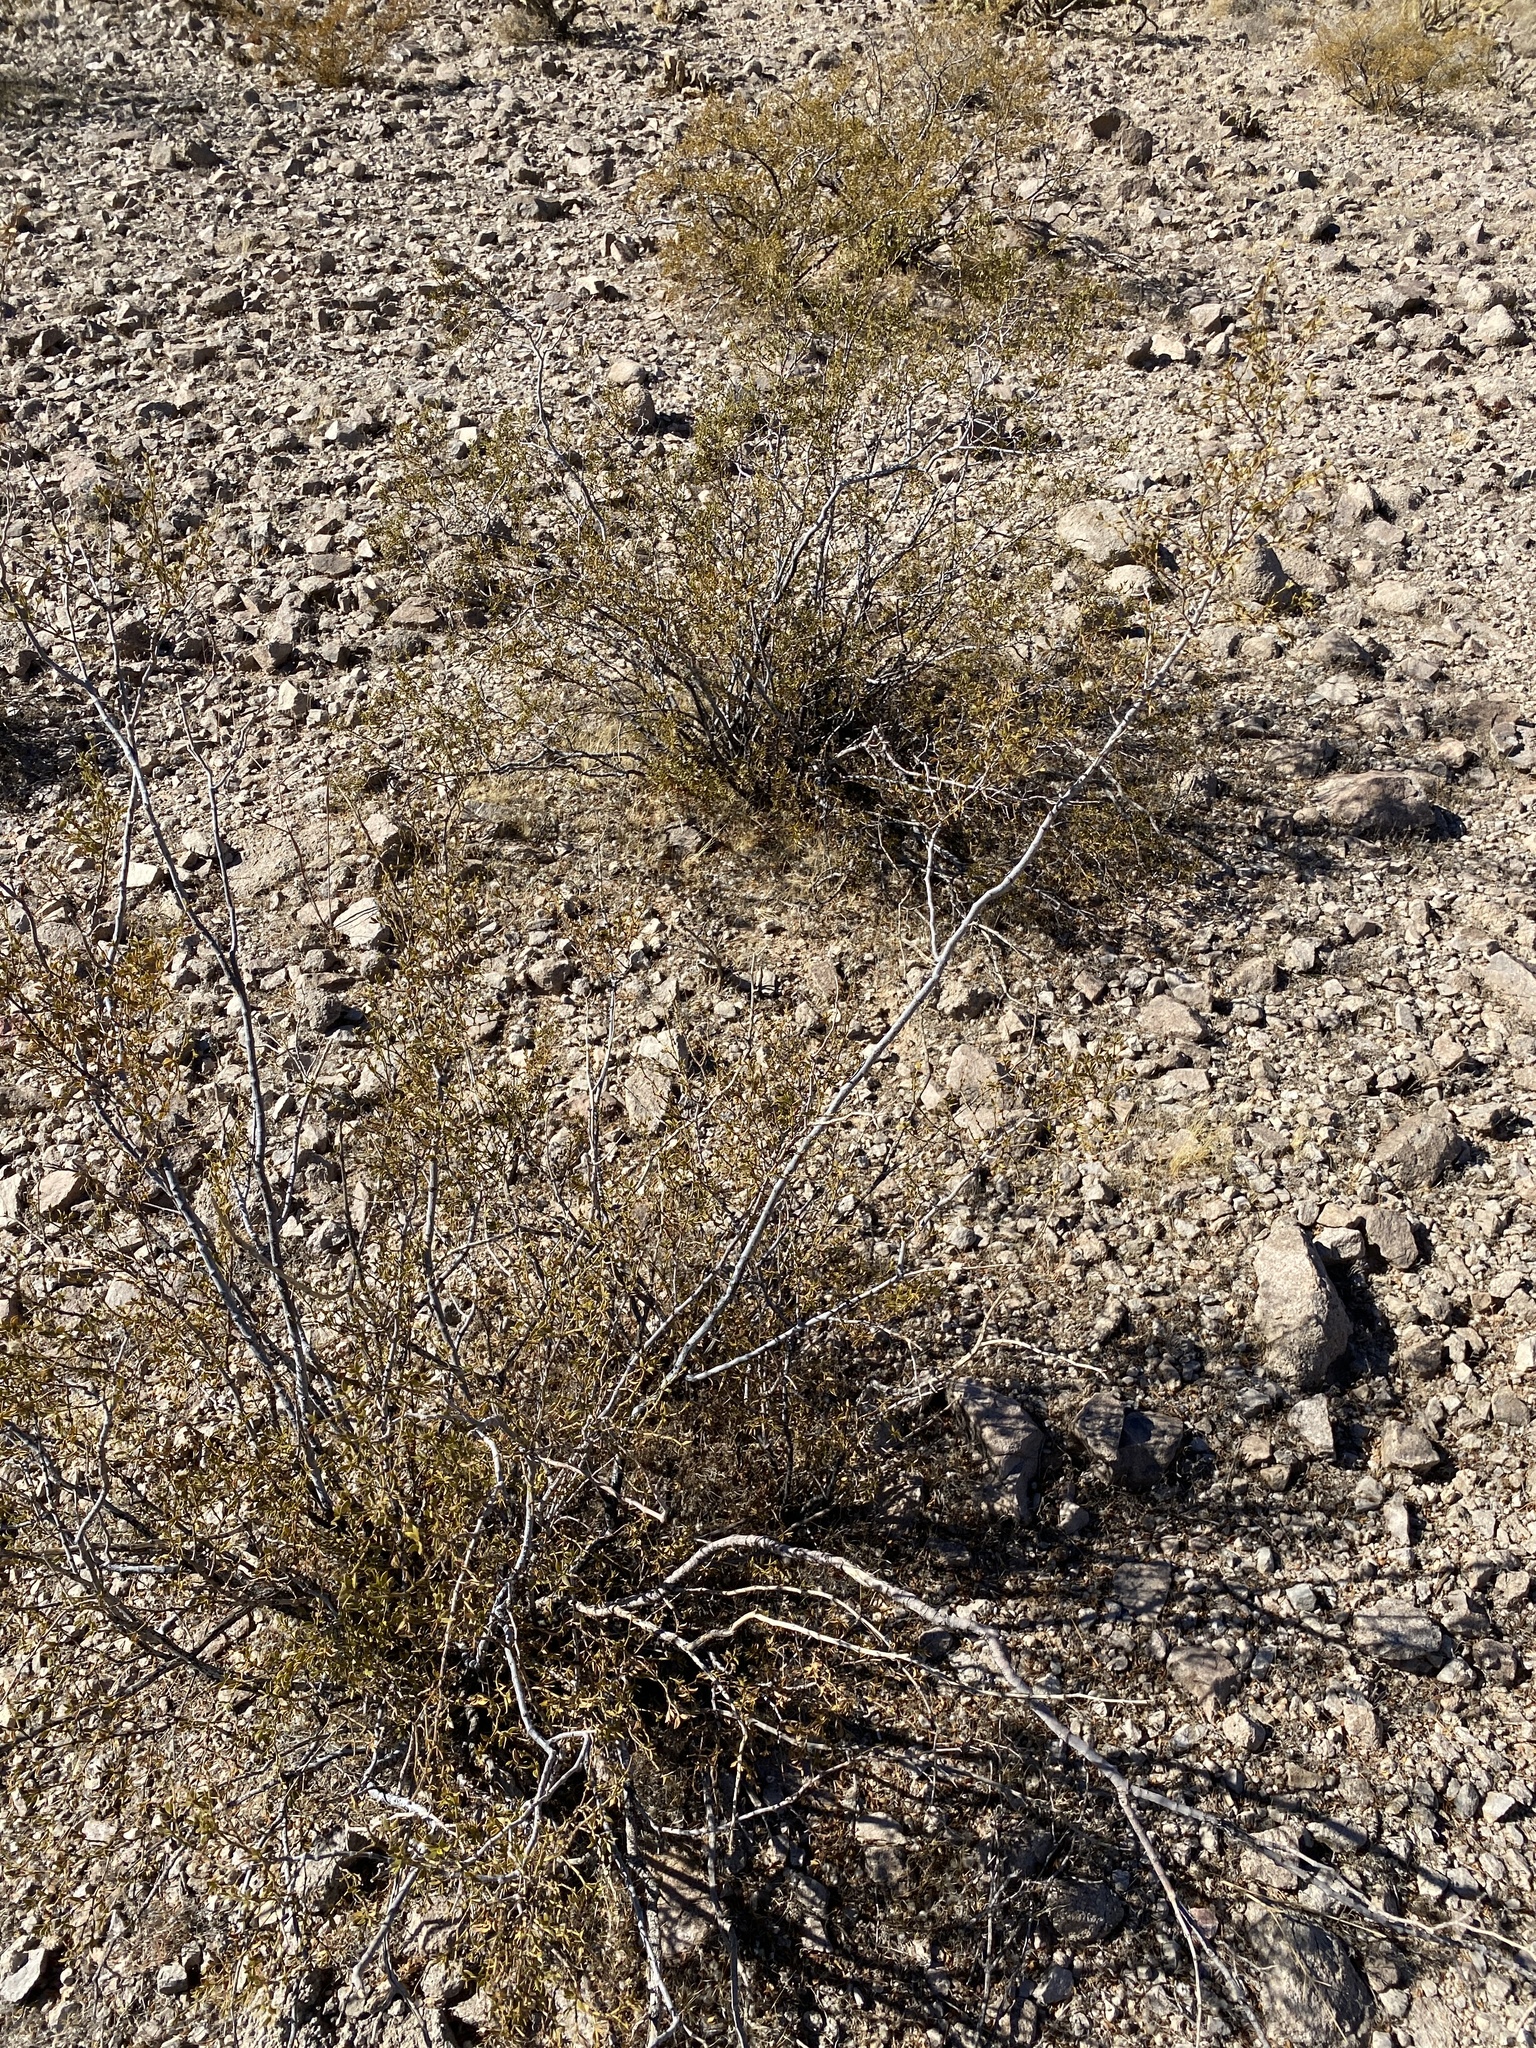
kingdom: Plantae
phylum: Tracheophyta
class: Magnoliopsida
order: Zygophyllales
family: Zygophyllaceae
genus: Larrea
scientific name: Larrea tridentata
